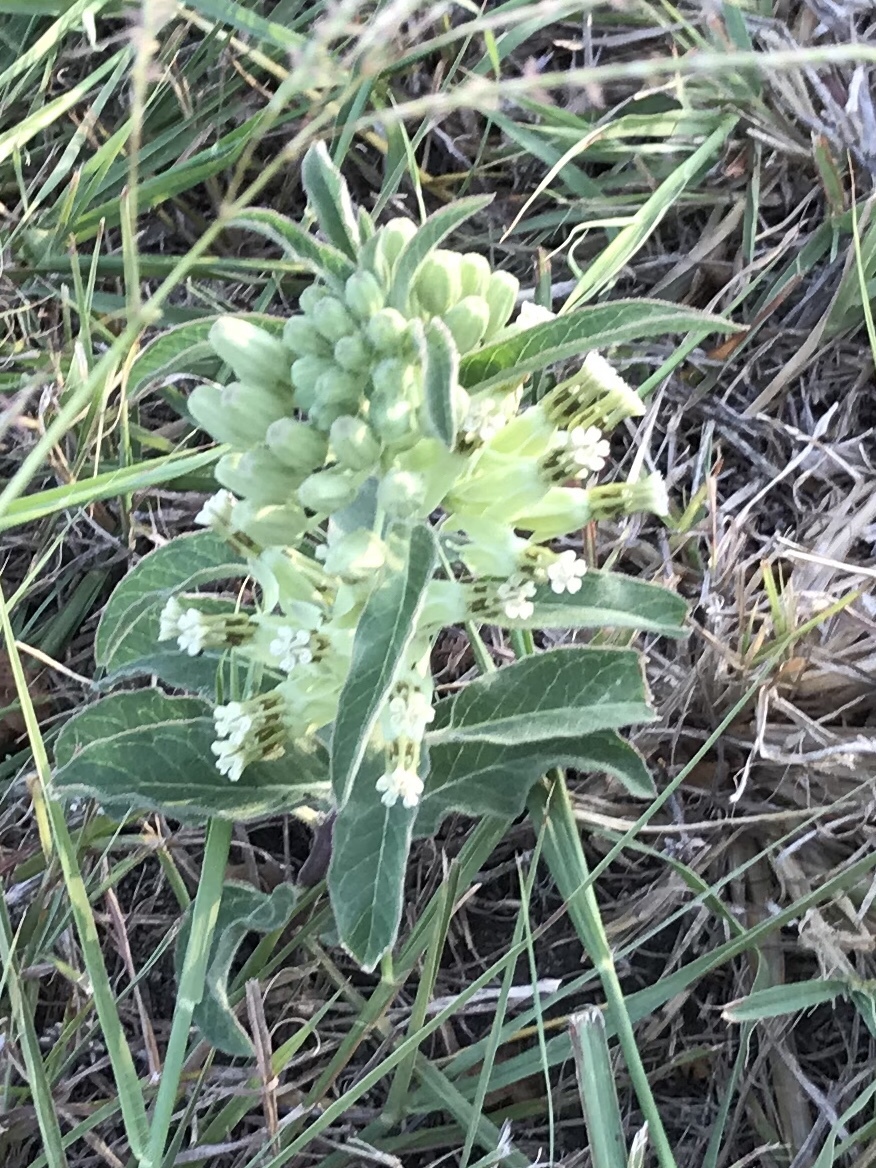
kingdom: Plantae
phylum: Tracheophyta
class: Magnoliopsida
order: Gentianales
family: Apocynaceae
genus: Asclepias
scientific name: Asclepias oenotheroides
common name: Zizotes milkweed
